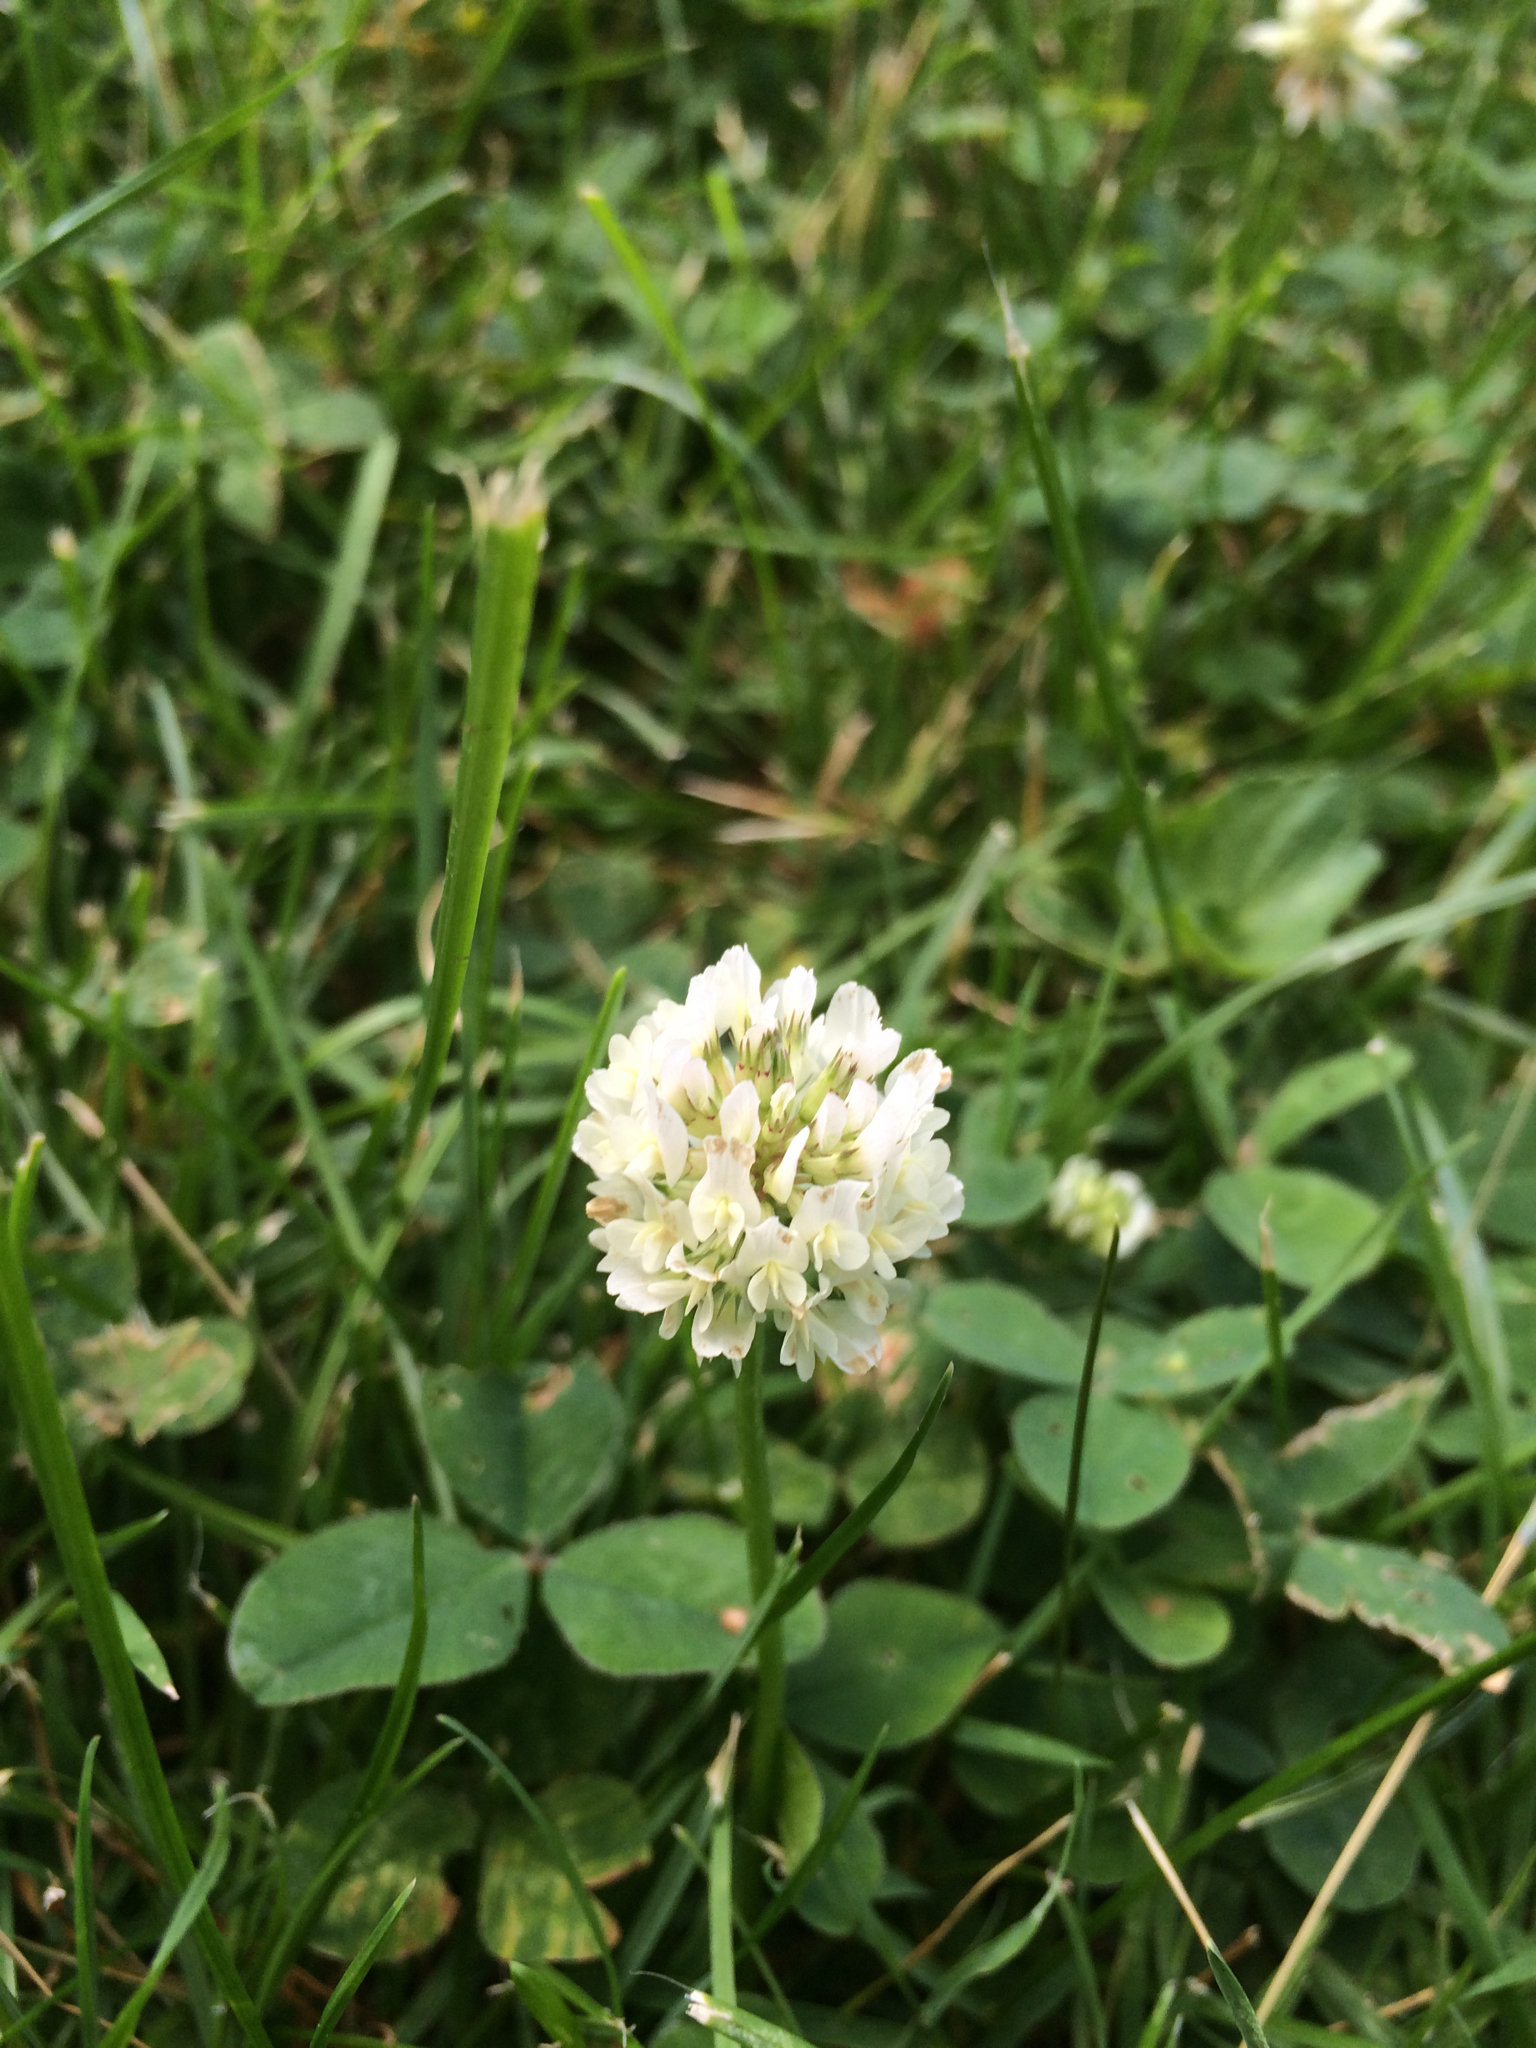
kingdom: Plantae
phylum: Tracheophyta
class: Magnoliopsida
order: Fabales
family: Fabaceae
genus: Trifolium
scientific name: Trifolium repens
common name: White clover
